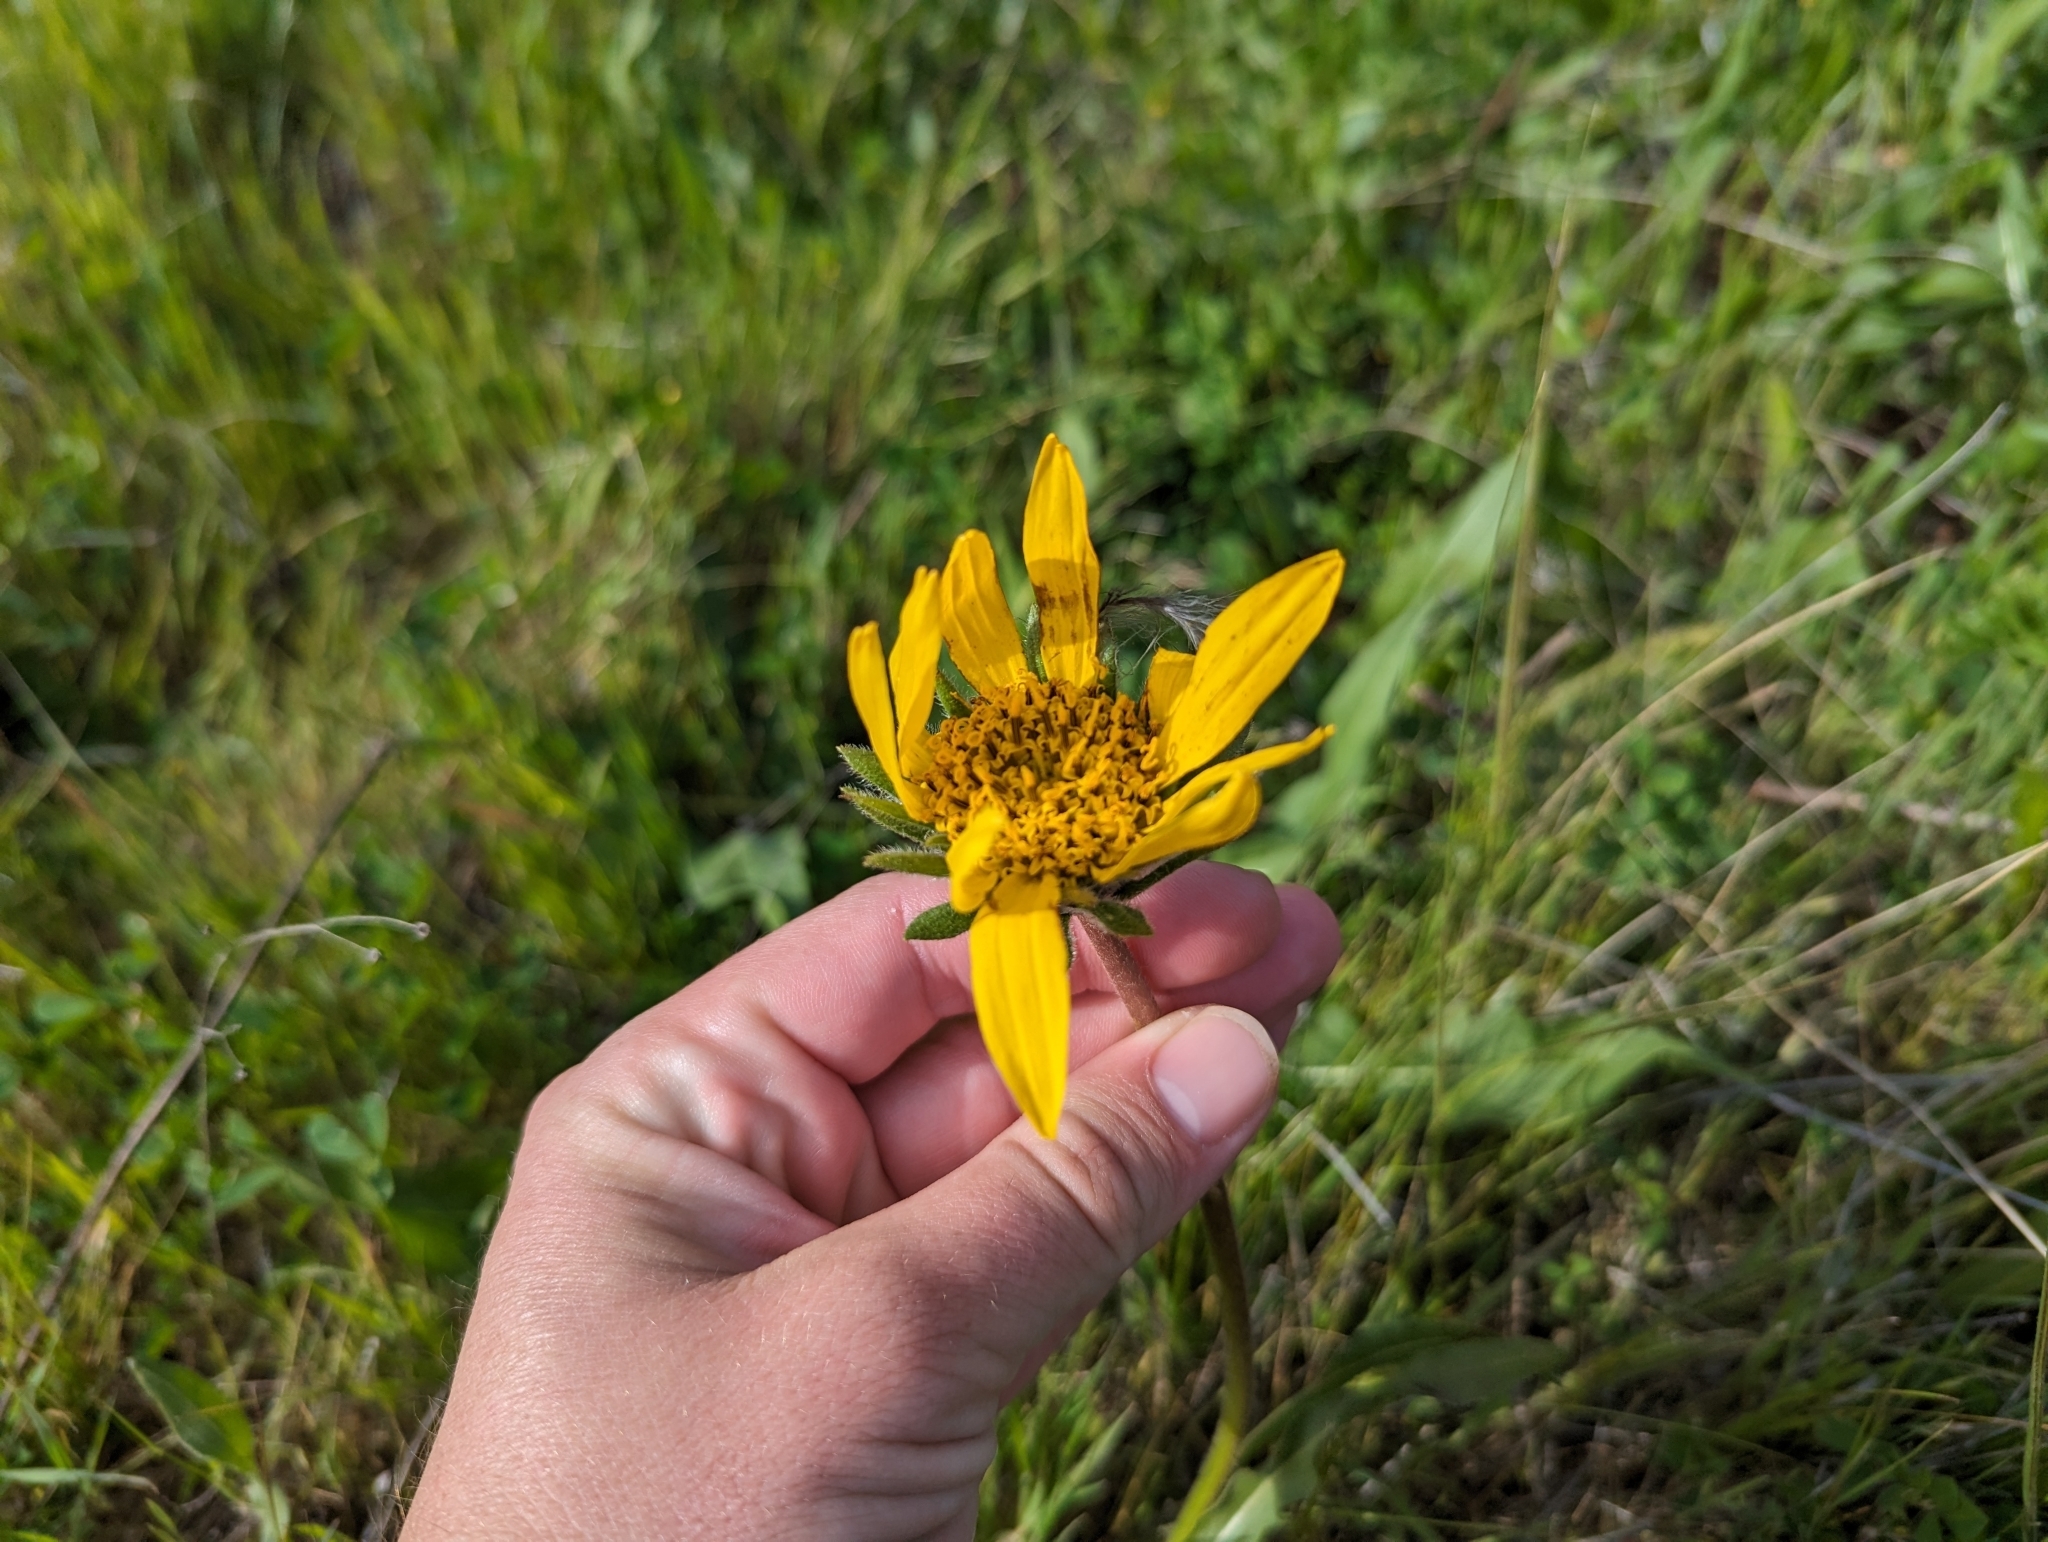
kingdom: Plantae
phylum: Tracheophyta
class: Magnoliopsida
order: Asterales
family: Asteraceae
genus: Wyethia
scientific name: Wyethia angustifolia
